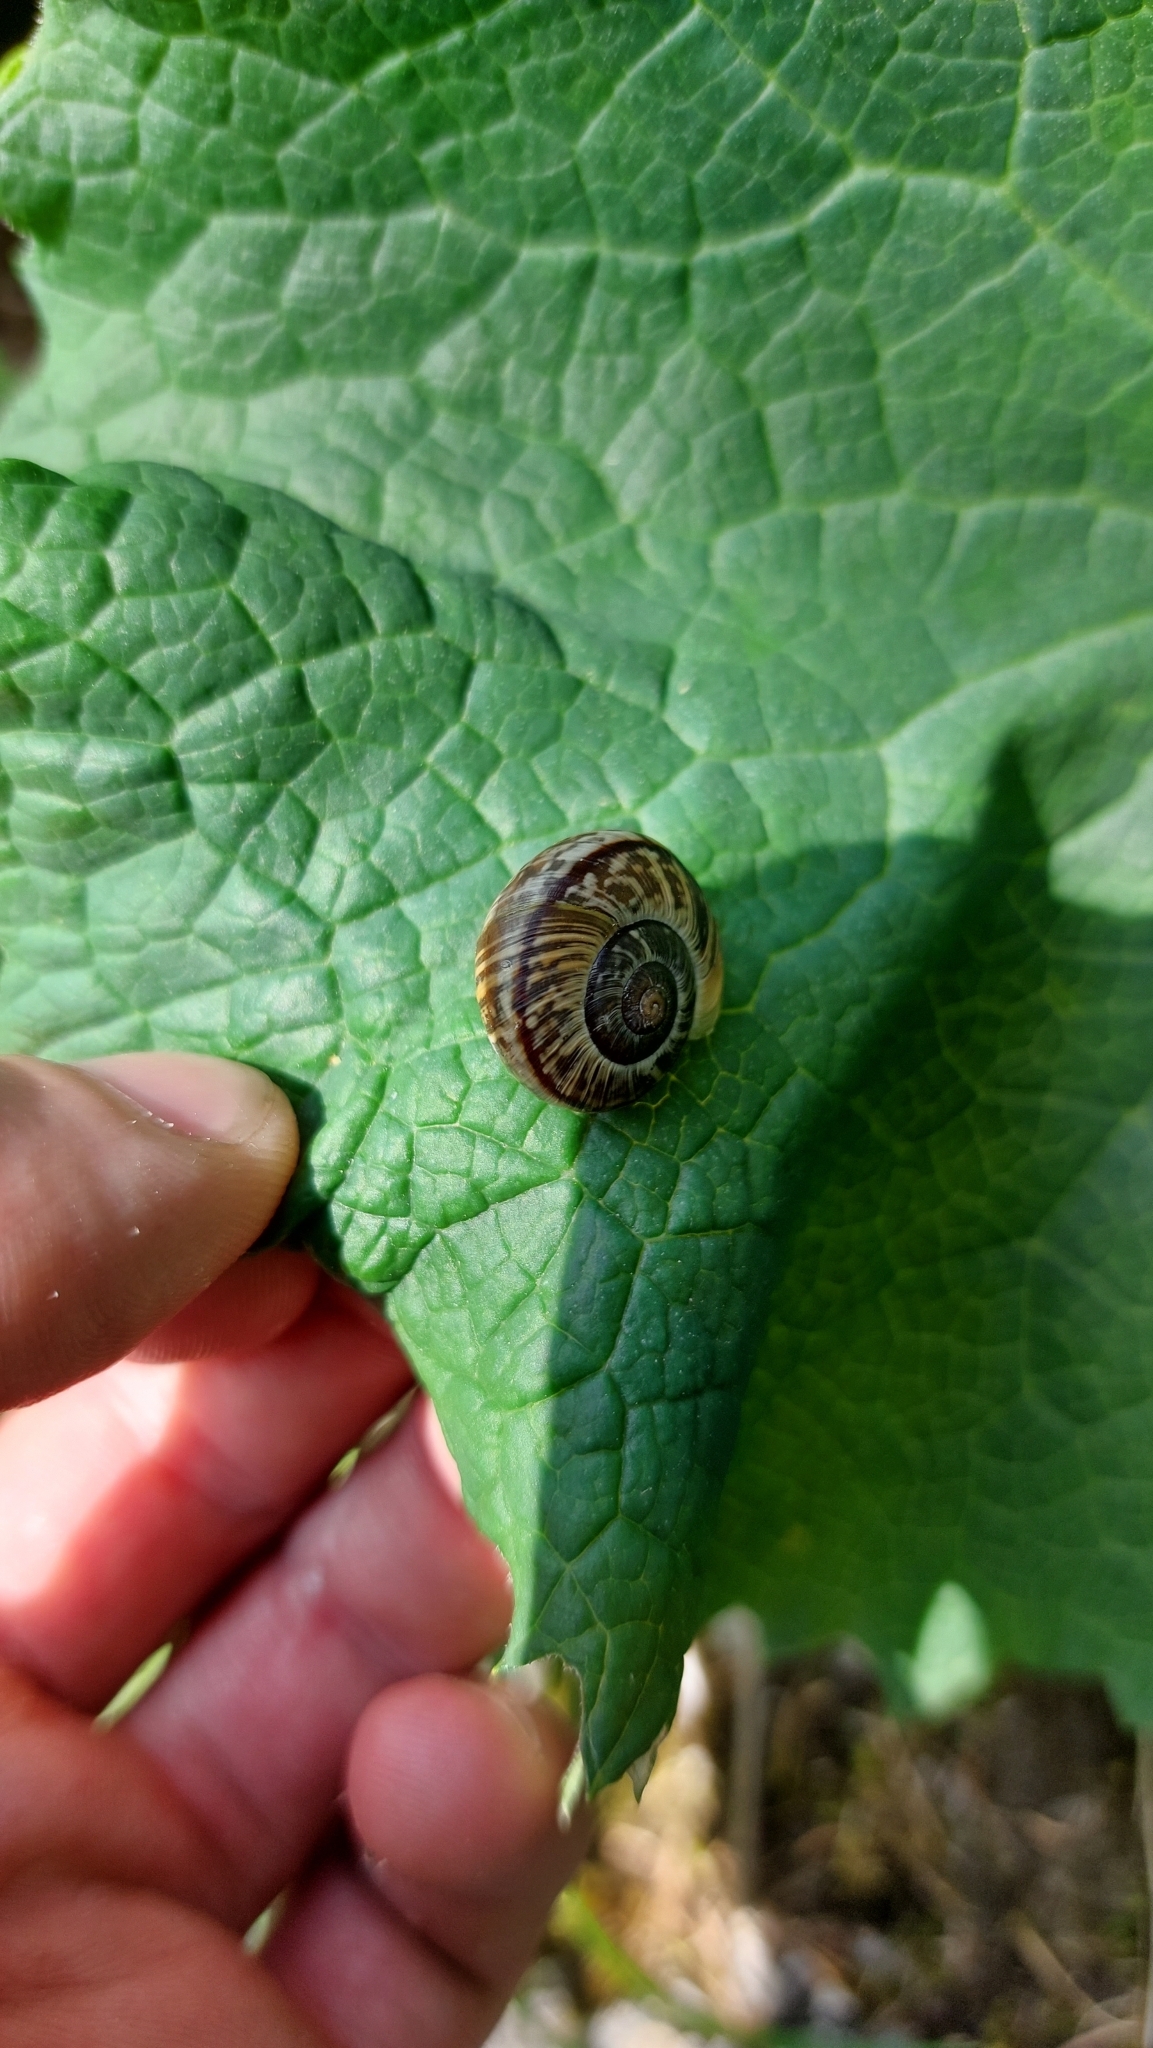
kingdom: Animalia
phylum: Mollusca
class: Gastropoda
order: Stylommatophora
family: Helicidae
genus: Arianta
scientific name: Arianta arbustorum
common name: Copse snail
